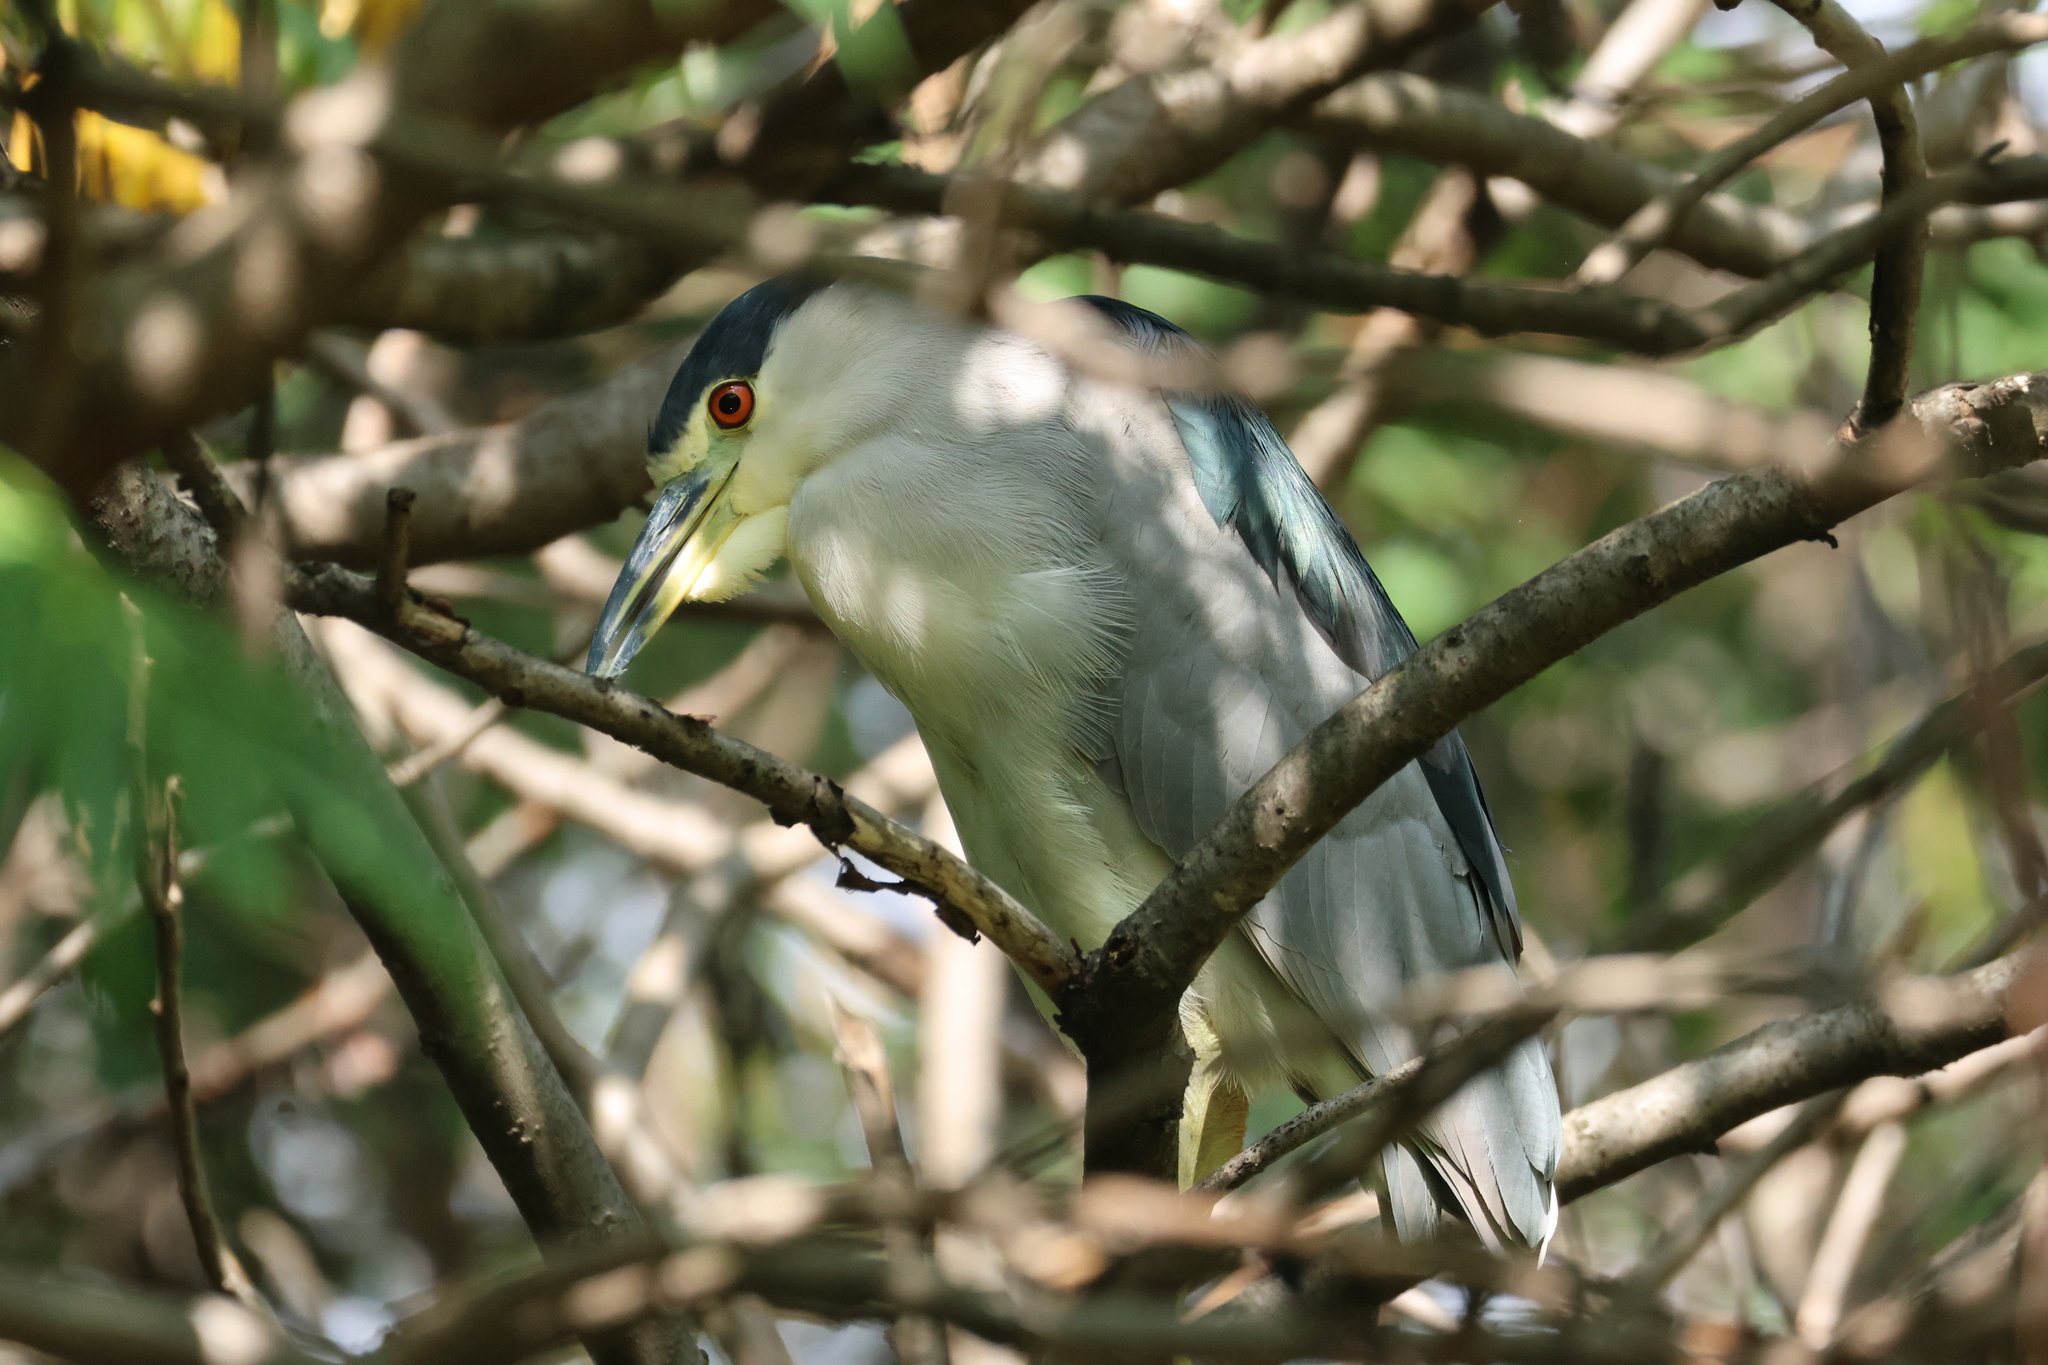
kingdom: Animalia
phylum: Chordata
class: Aves
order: Pelecaniformes
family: Ardeidae
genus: Nycticorax
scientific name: Nycticorax nycticorax
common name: Black-crowned night heron
